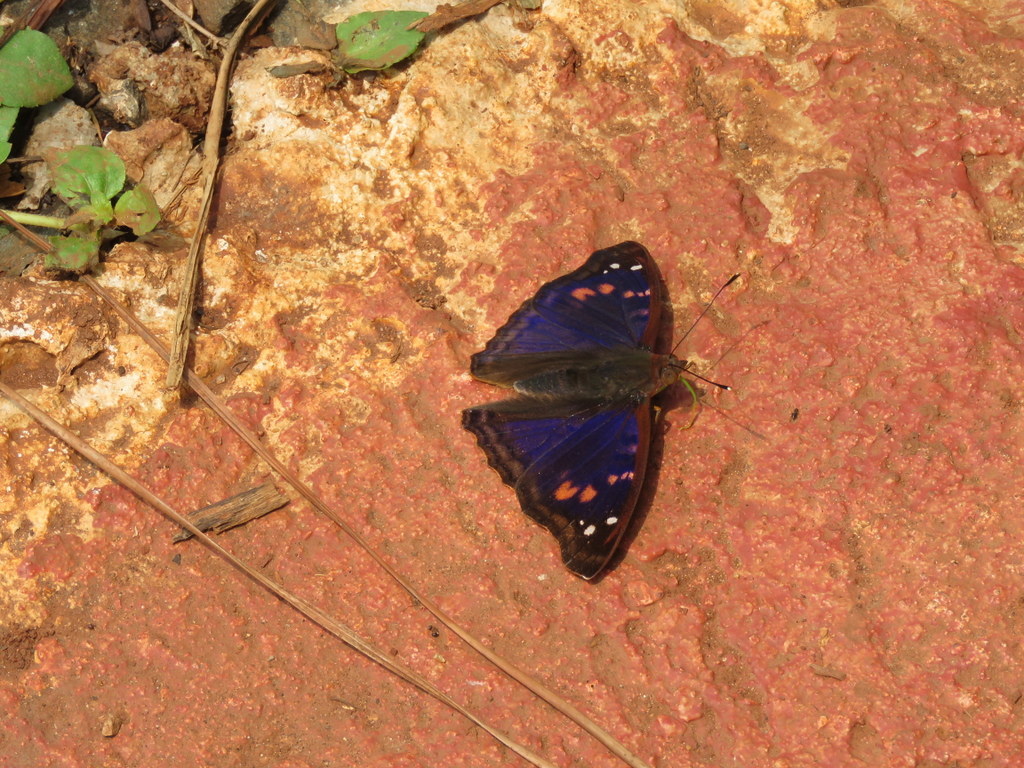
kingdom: Animalia
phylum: Arthropoda
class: Insecta
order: Lepidoptera
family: Nymphalidae
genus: Doxocopa
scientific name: Doxocopa agathina
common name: Agathina emperor
